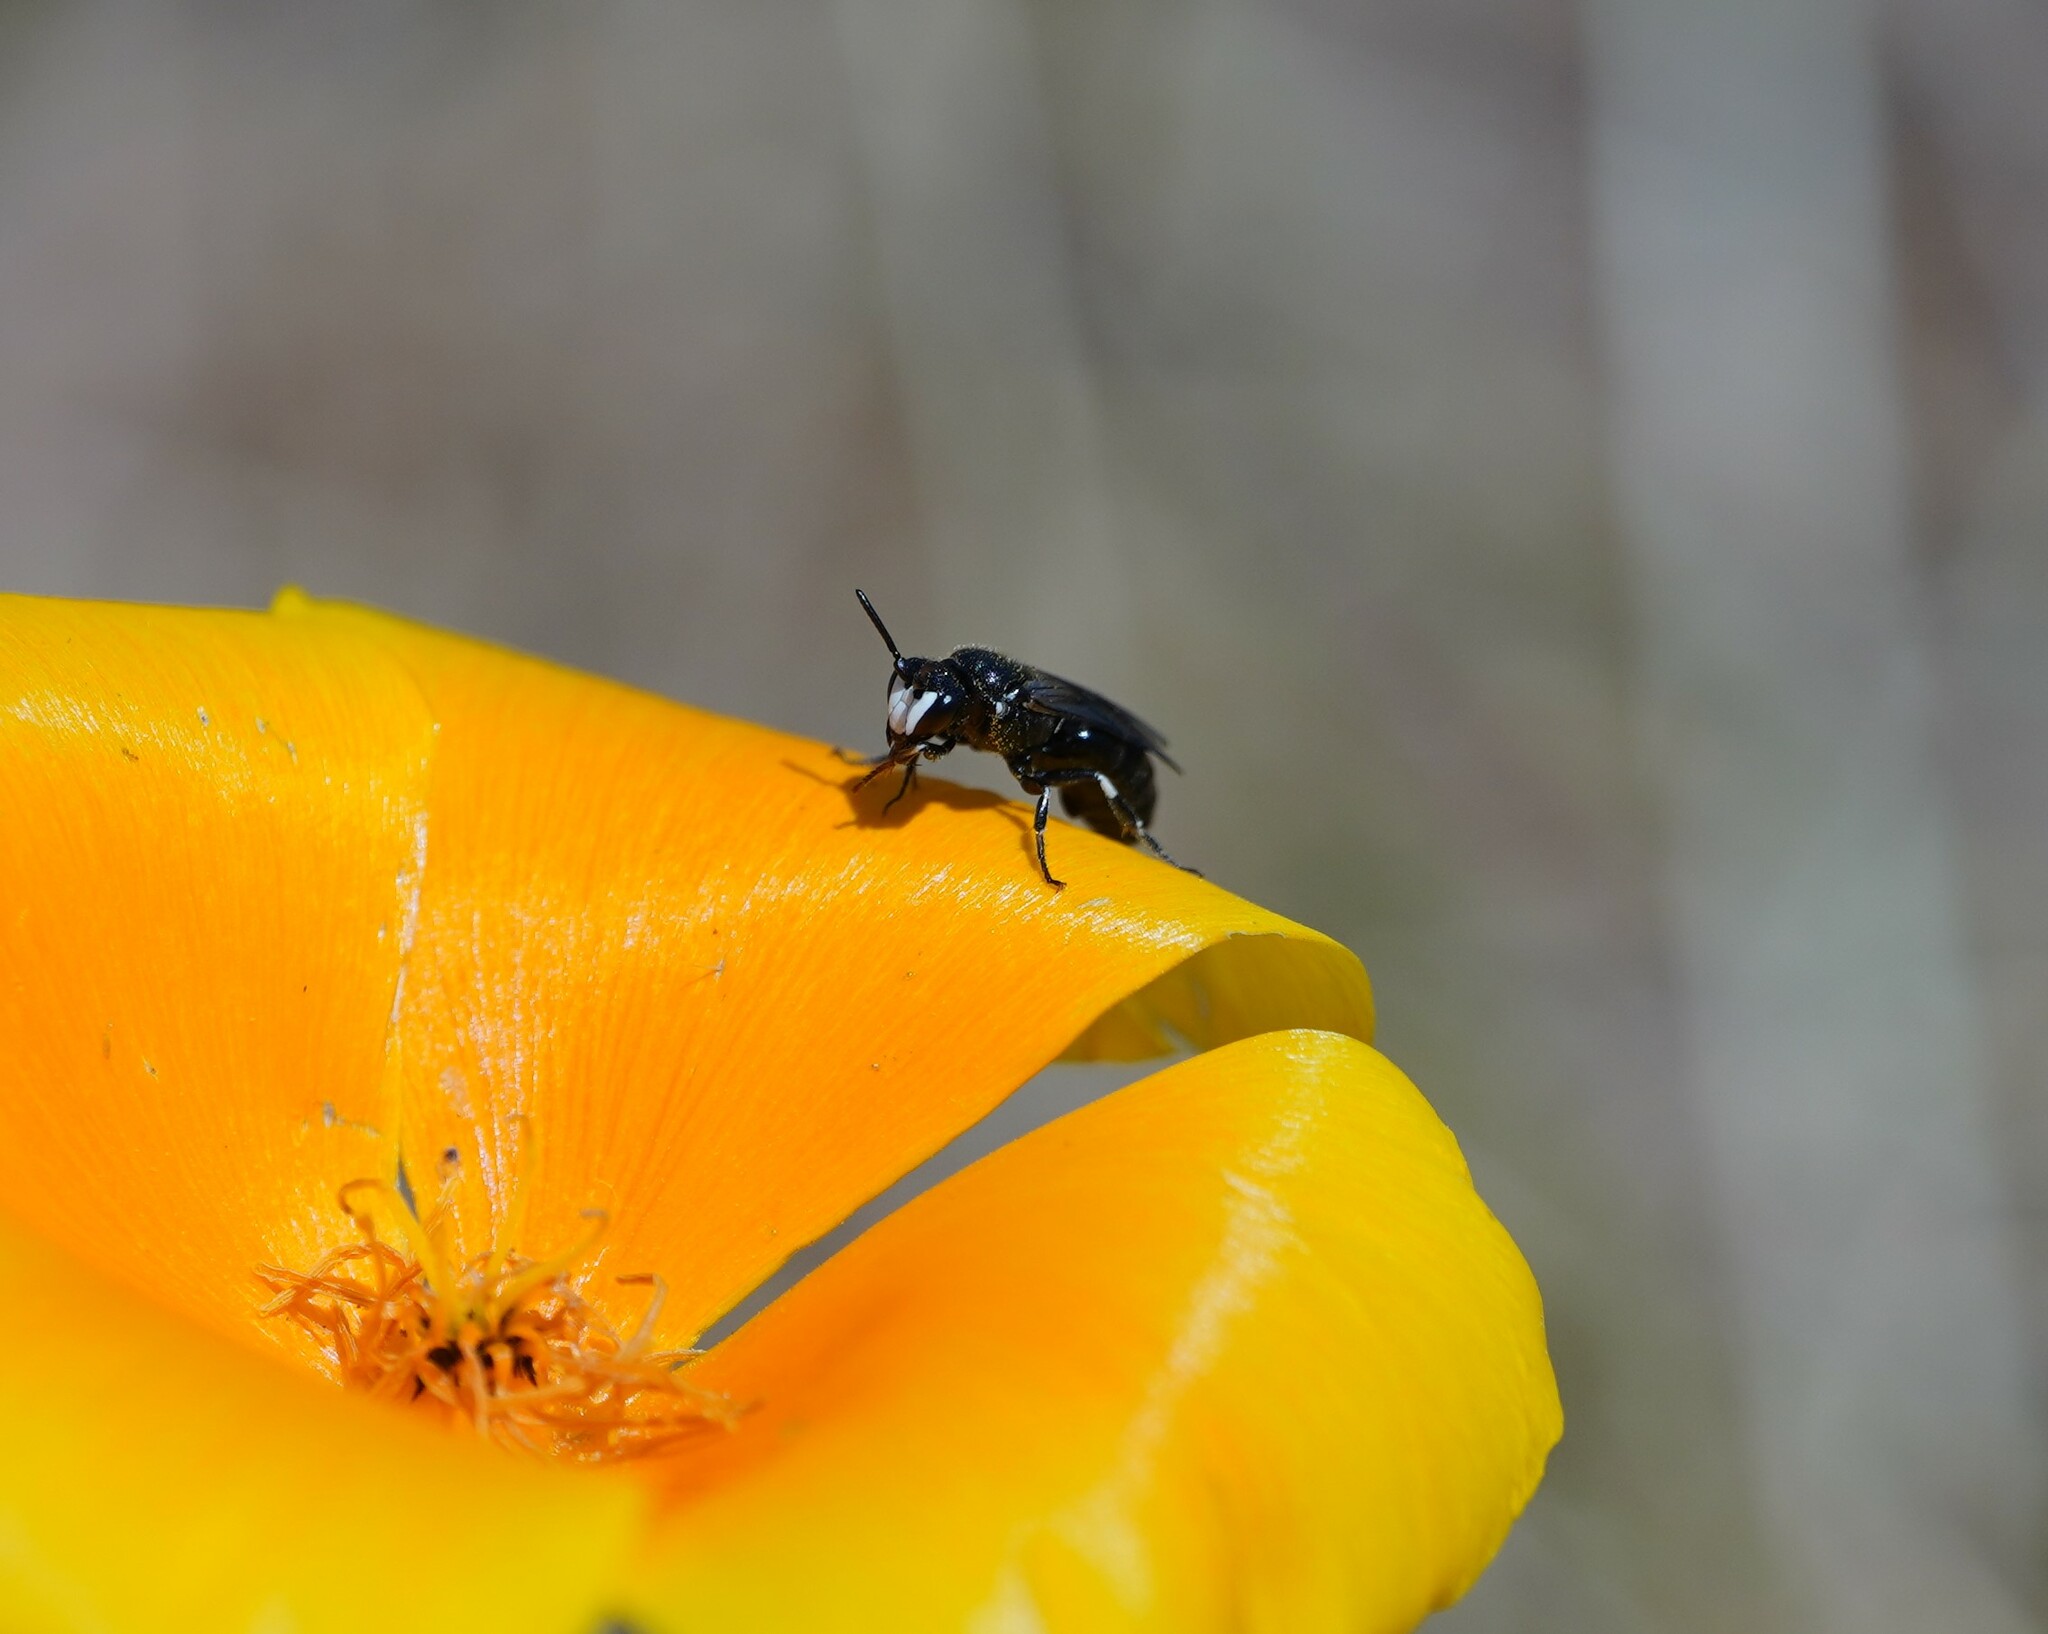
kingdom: Animalia
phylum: Arthropoda
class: Insecta
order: Hymenoptera
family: Colletidae
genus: Hylaeus
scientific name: Hylaeus nigritus
